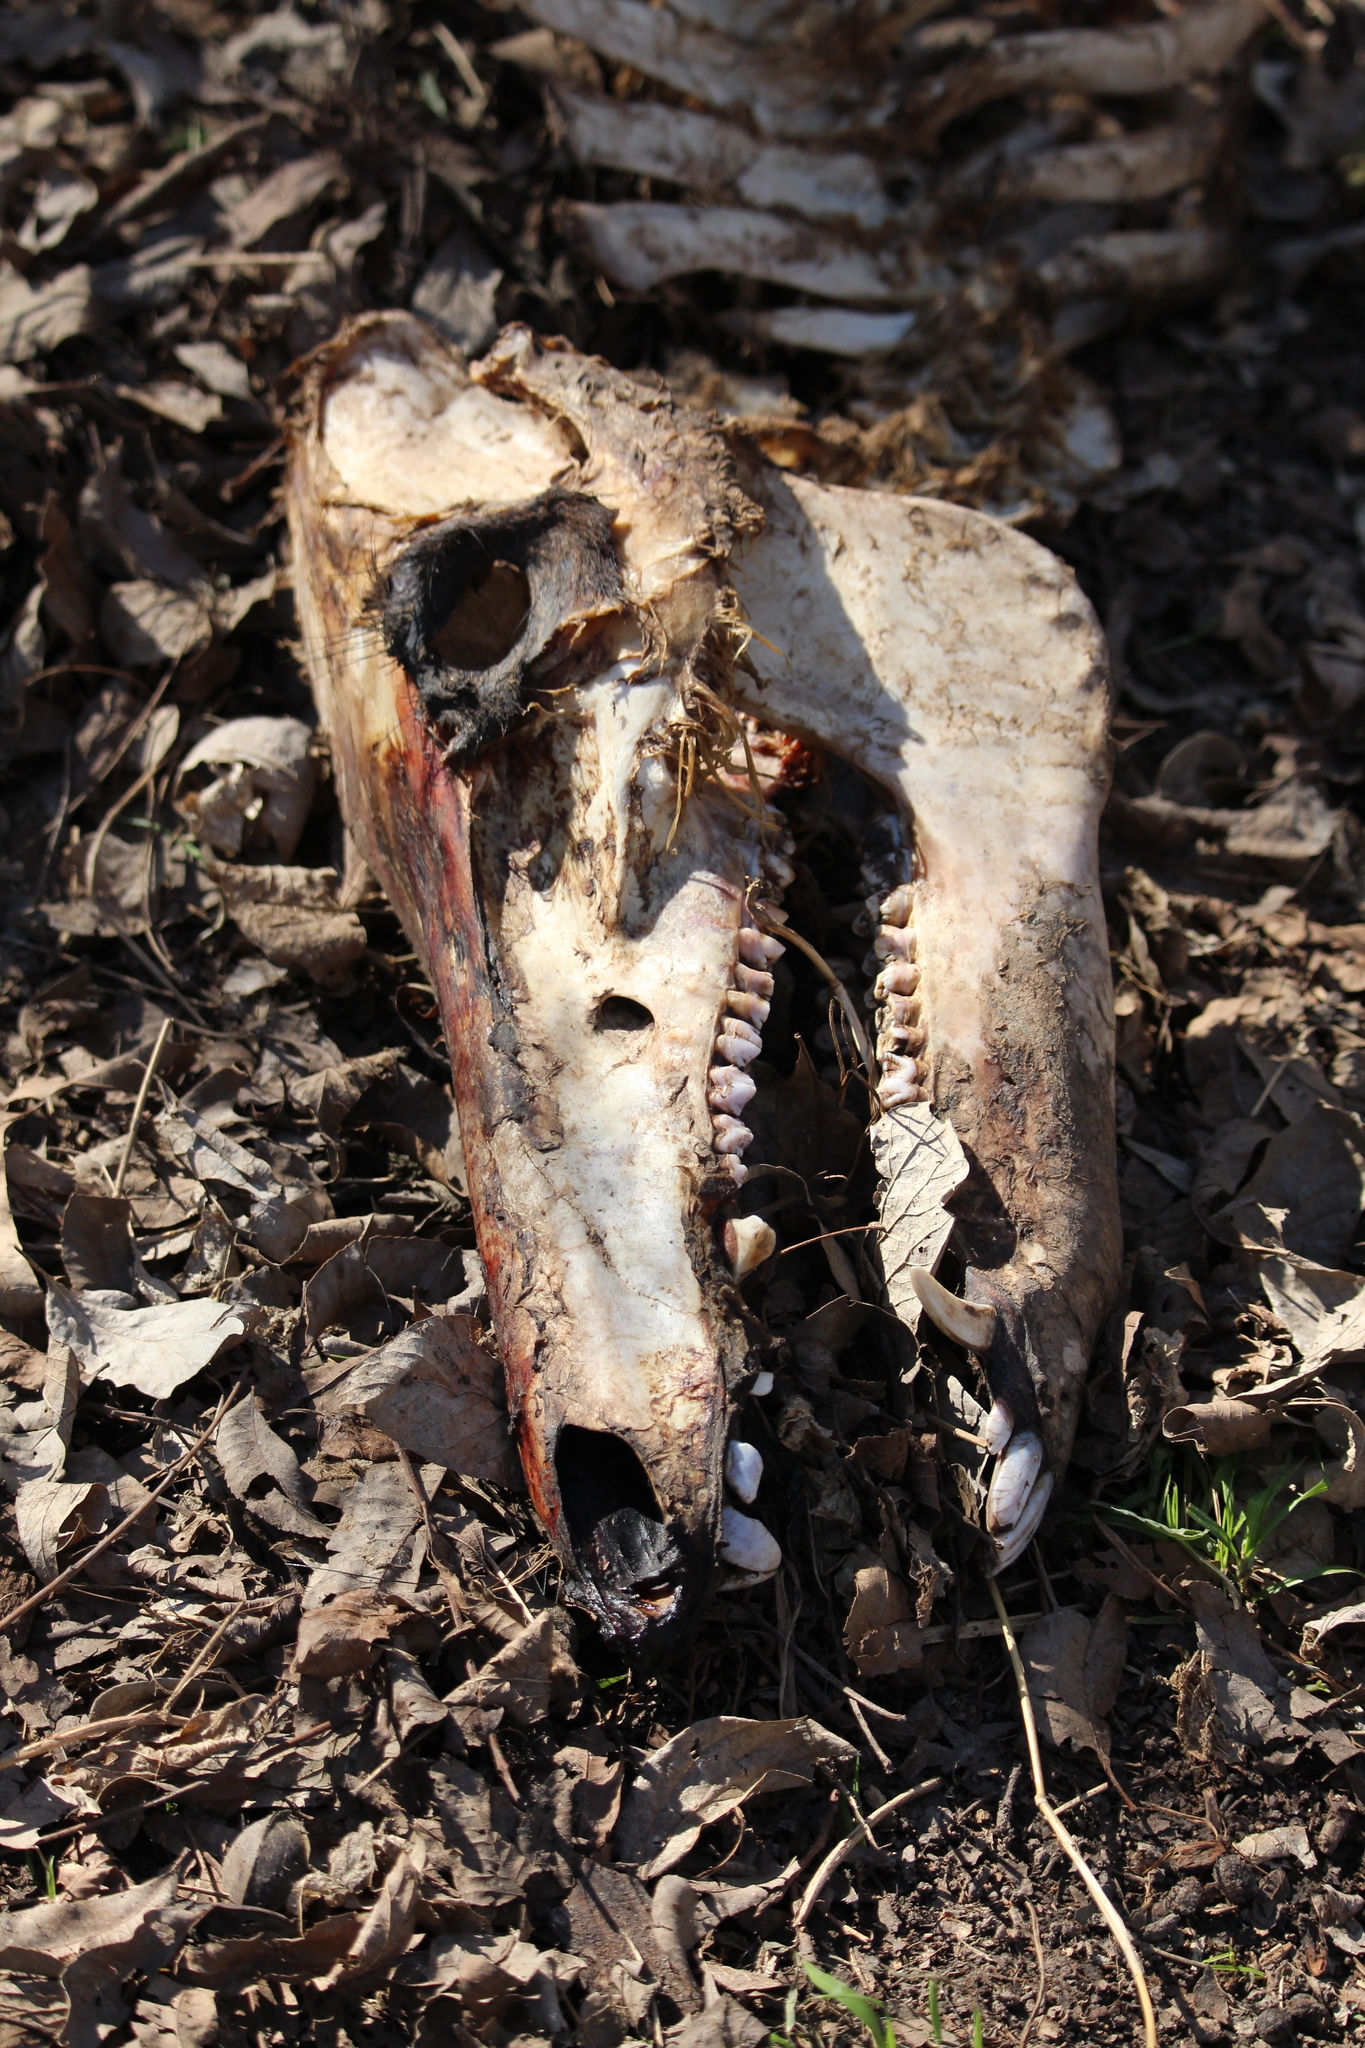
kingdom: Animalia
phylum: Chordata
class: Mammalia
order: Artiodactyla
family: Suidae
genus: Sus
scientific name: Sus scrofa
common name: Wild boar
